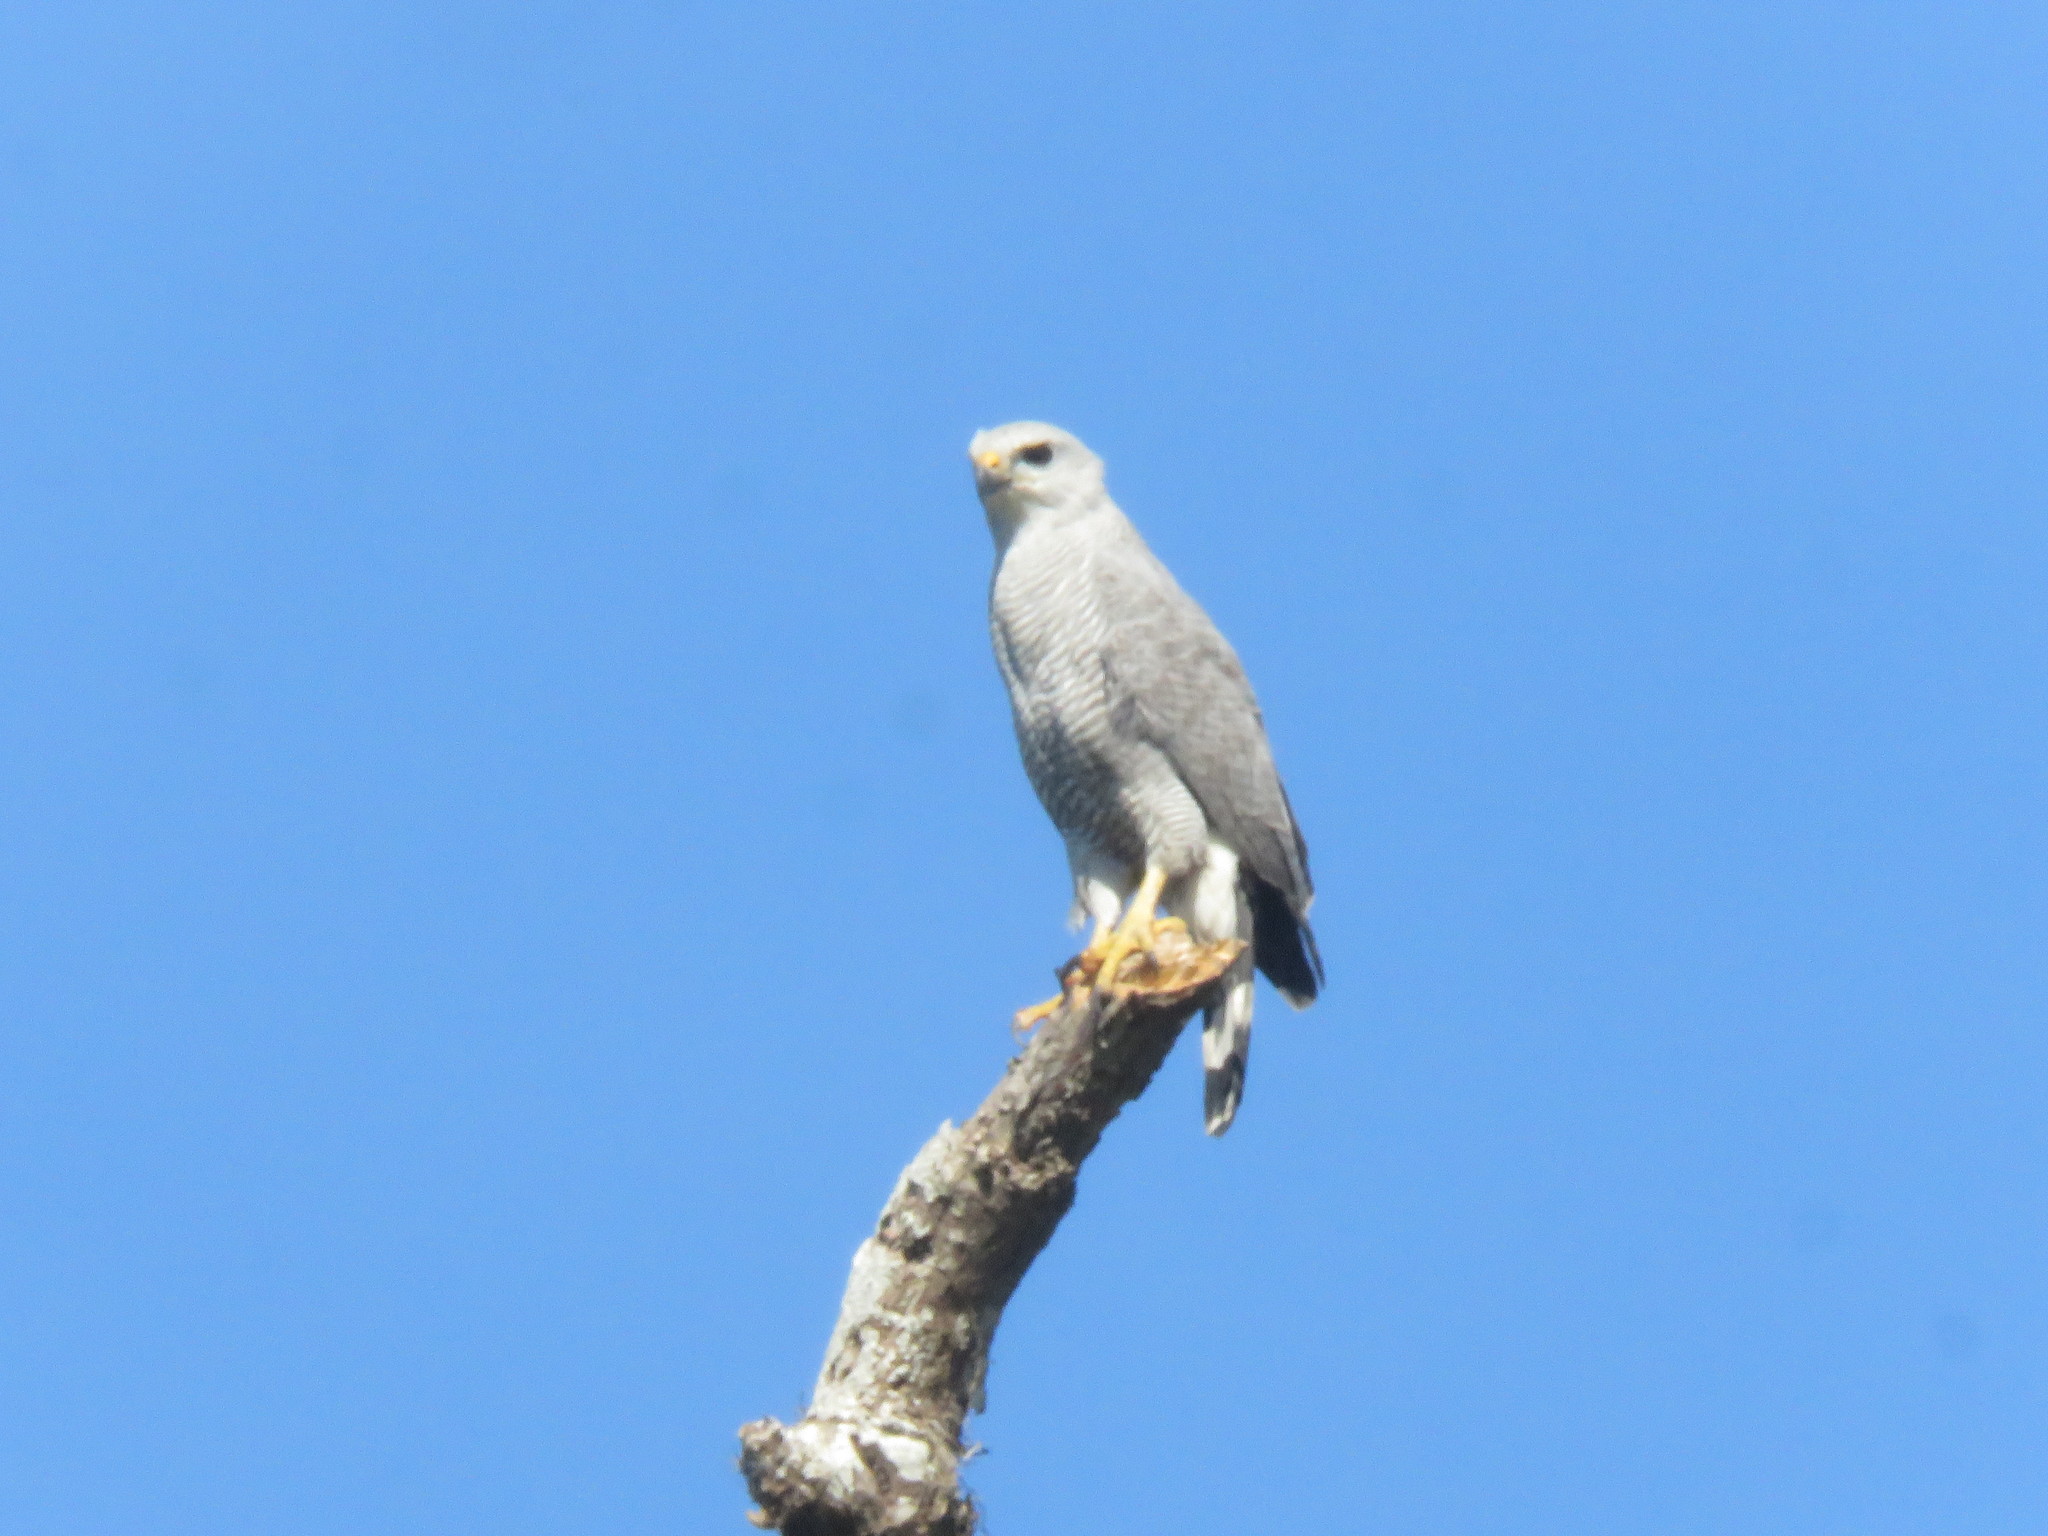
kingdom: Animalia
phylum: Chordata
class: Aves
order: Accipitriformes
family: Accipitridae
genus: Buteo
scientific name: Buteo nitidus
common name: Grey-lined hawk
